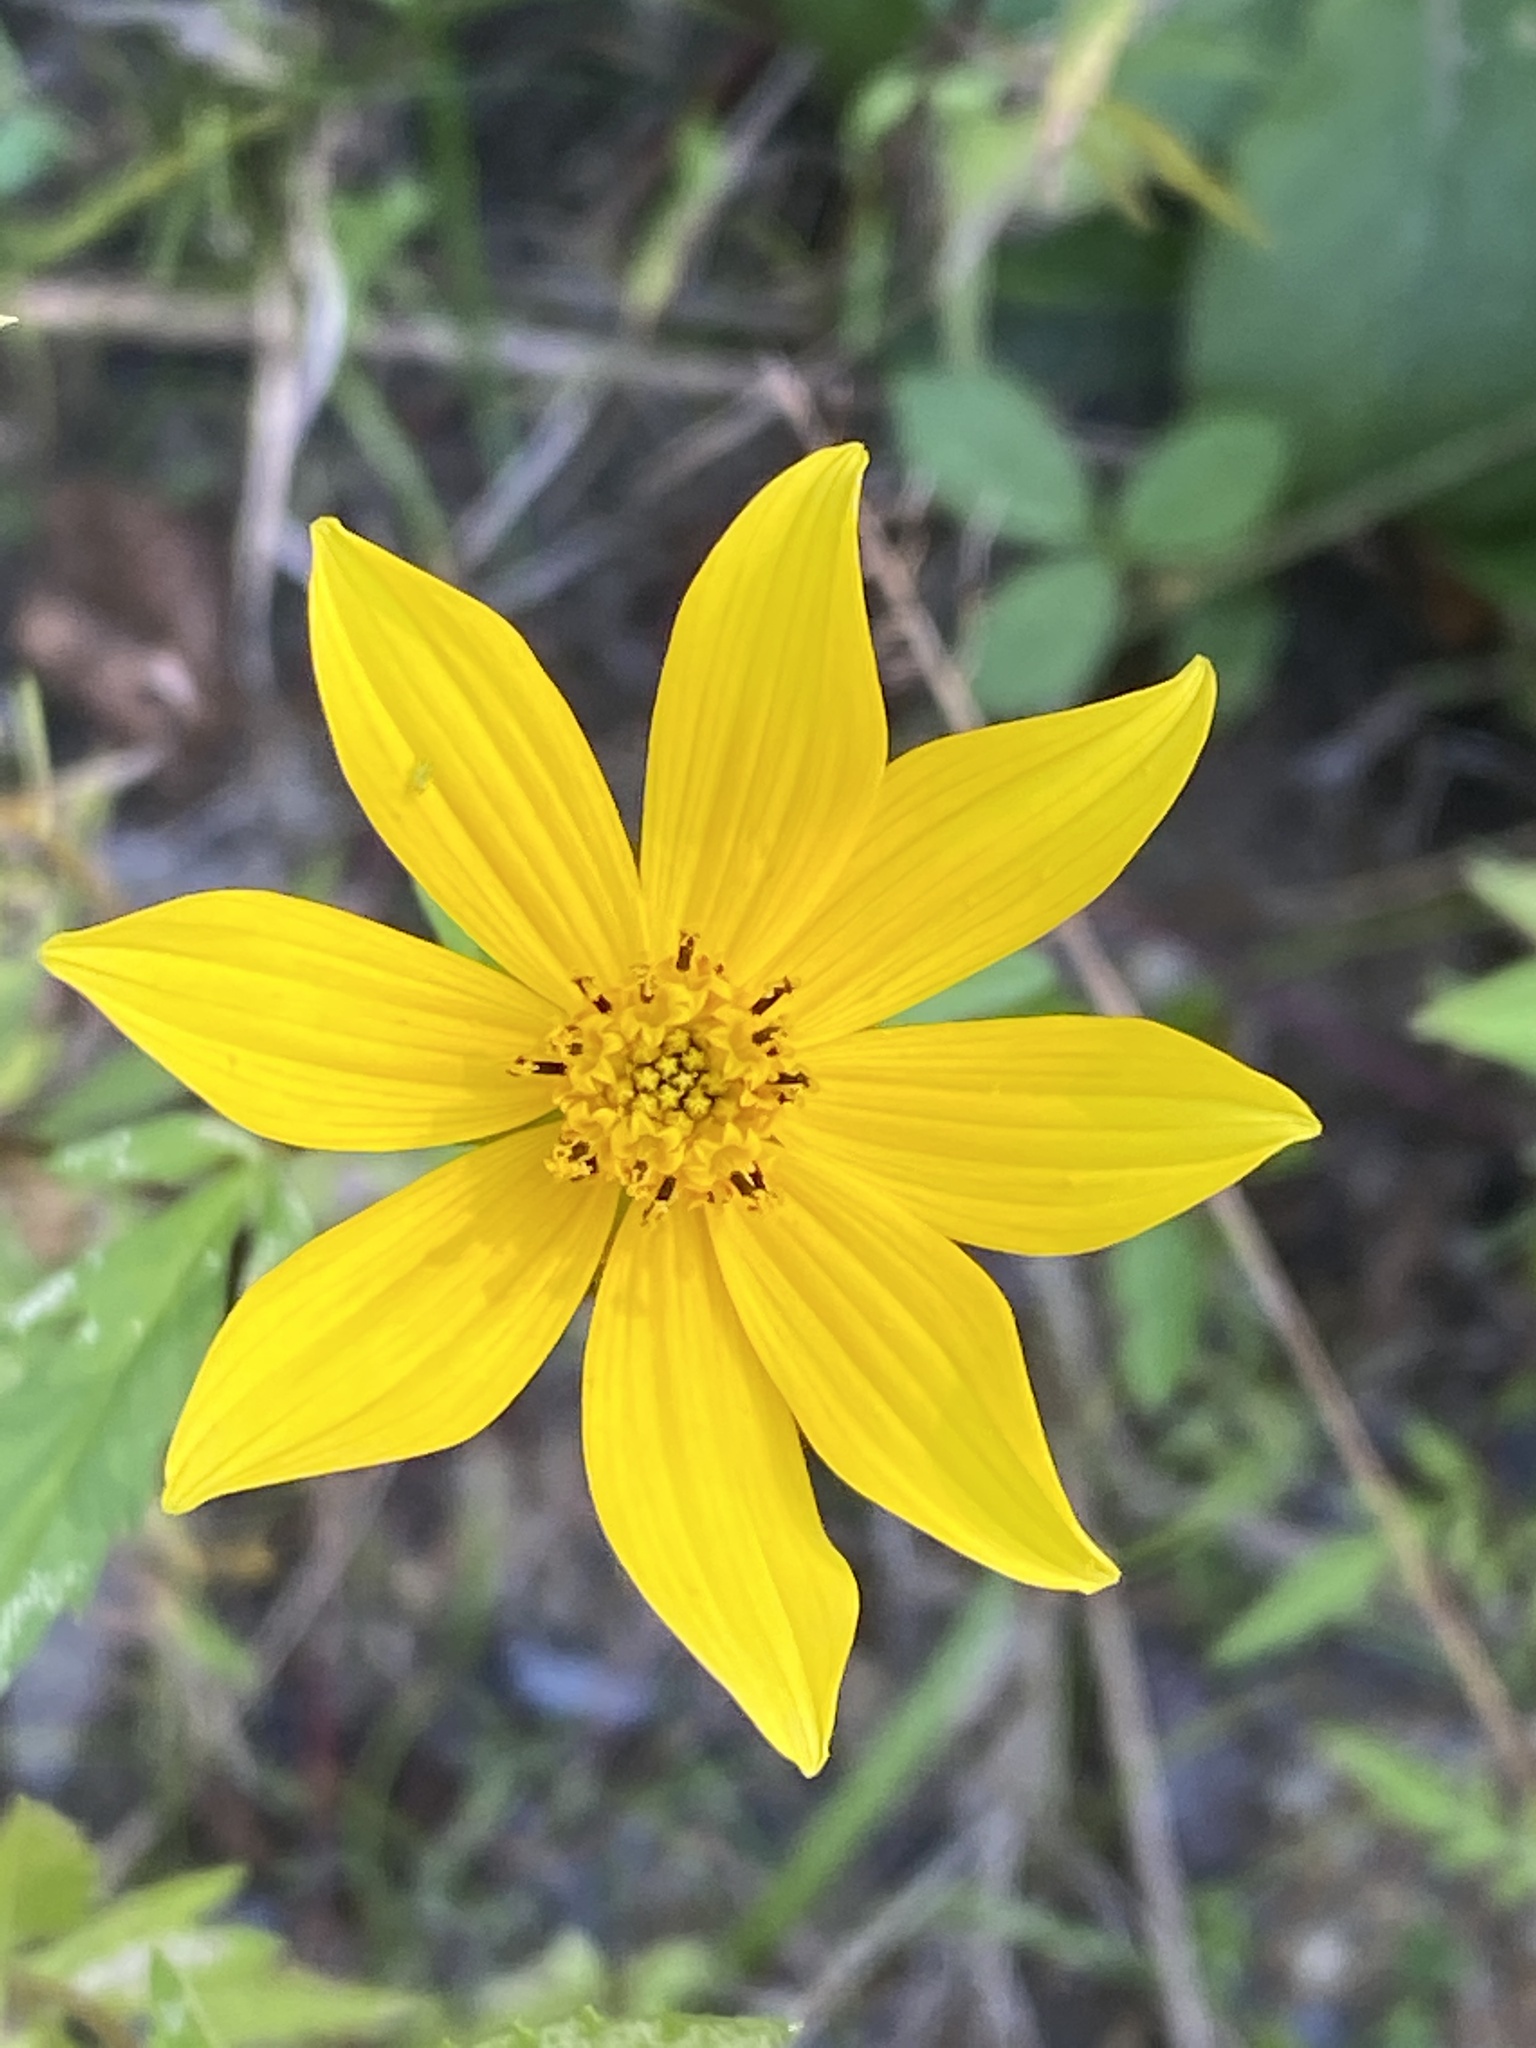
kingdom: Plantae
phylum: Tracheophyta
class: Magnoliopsida
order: Asterales
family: Asteraceae
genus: Bidens
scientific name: Bidens aristosa
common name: Western tickseed
